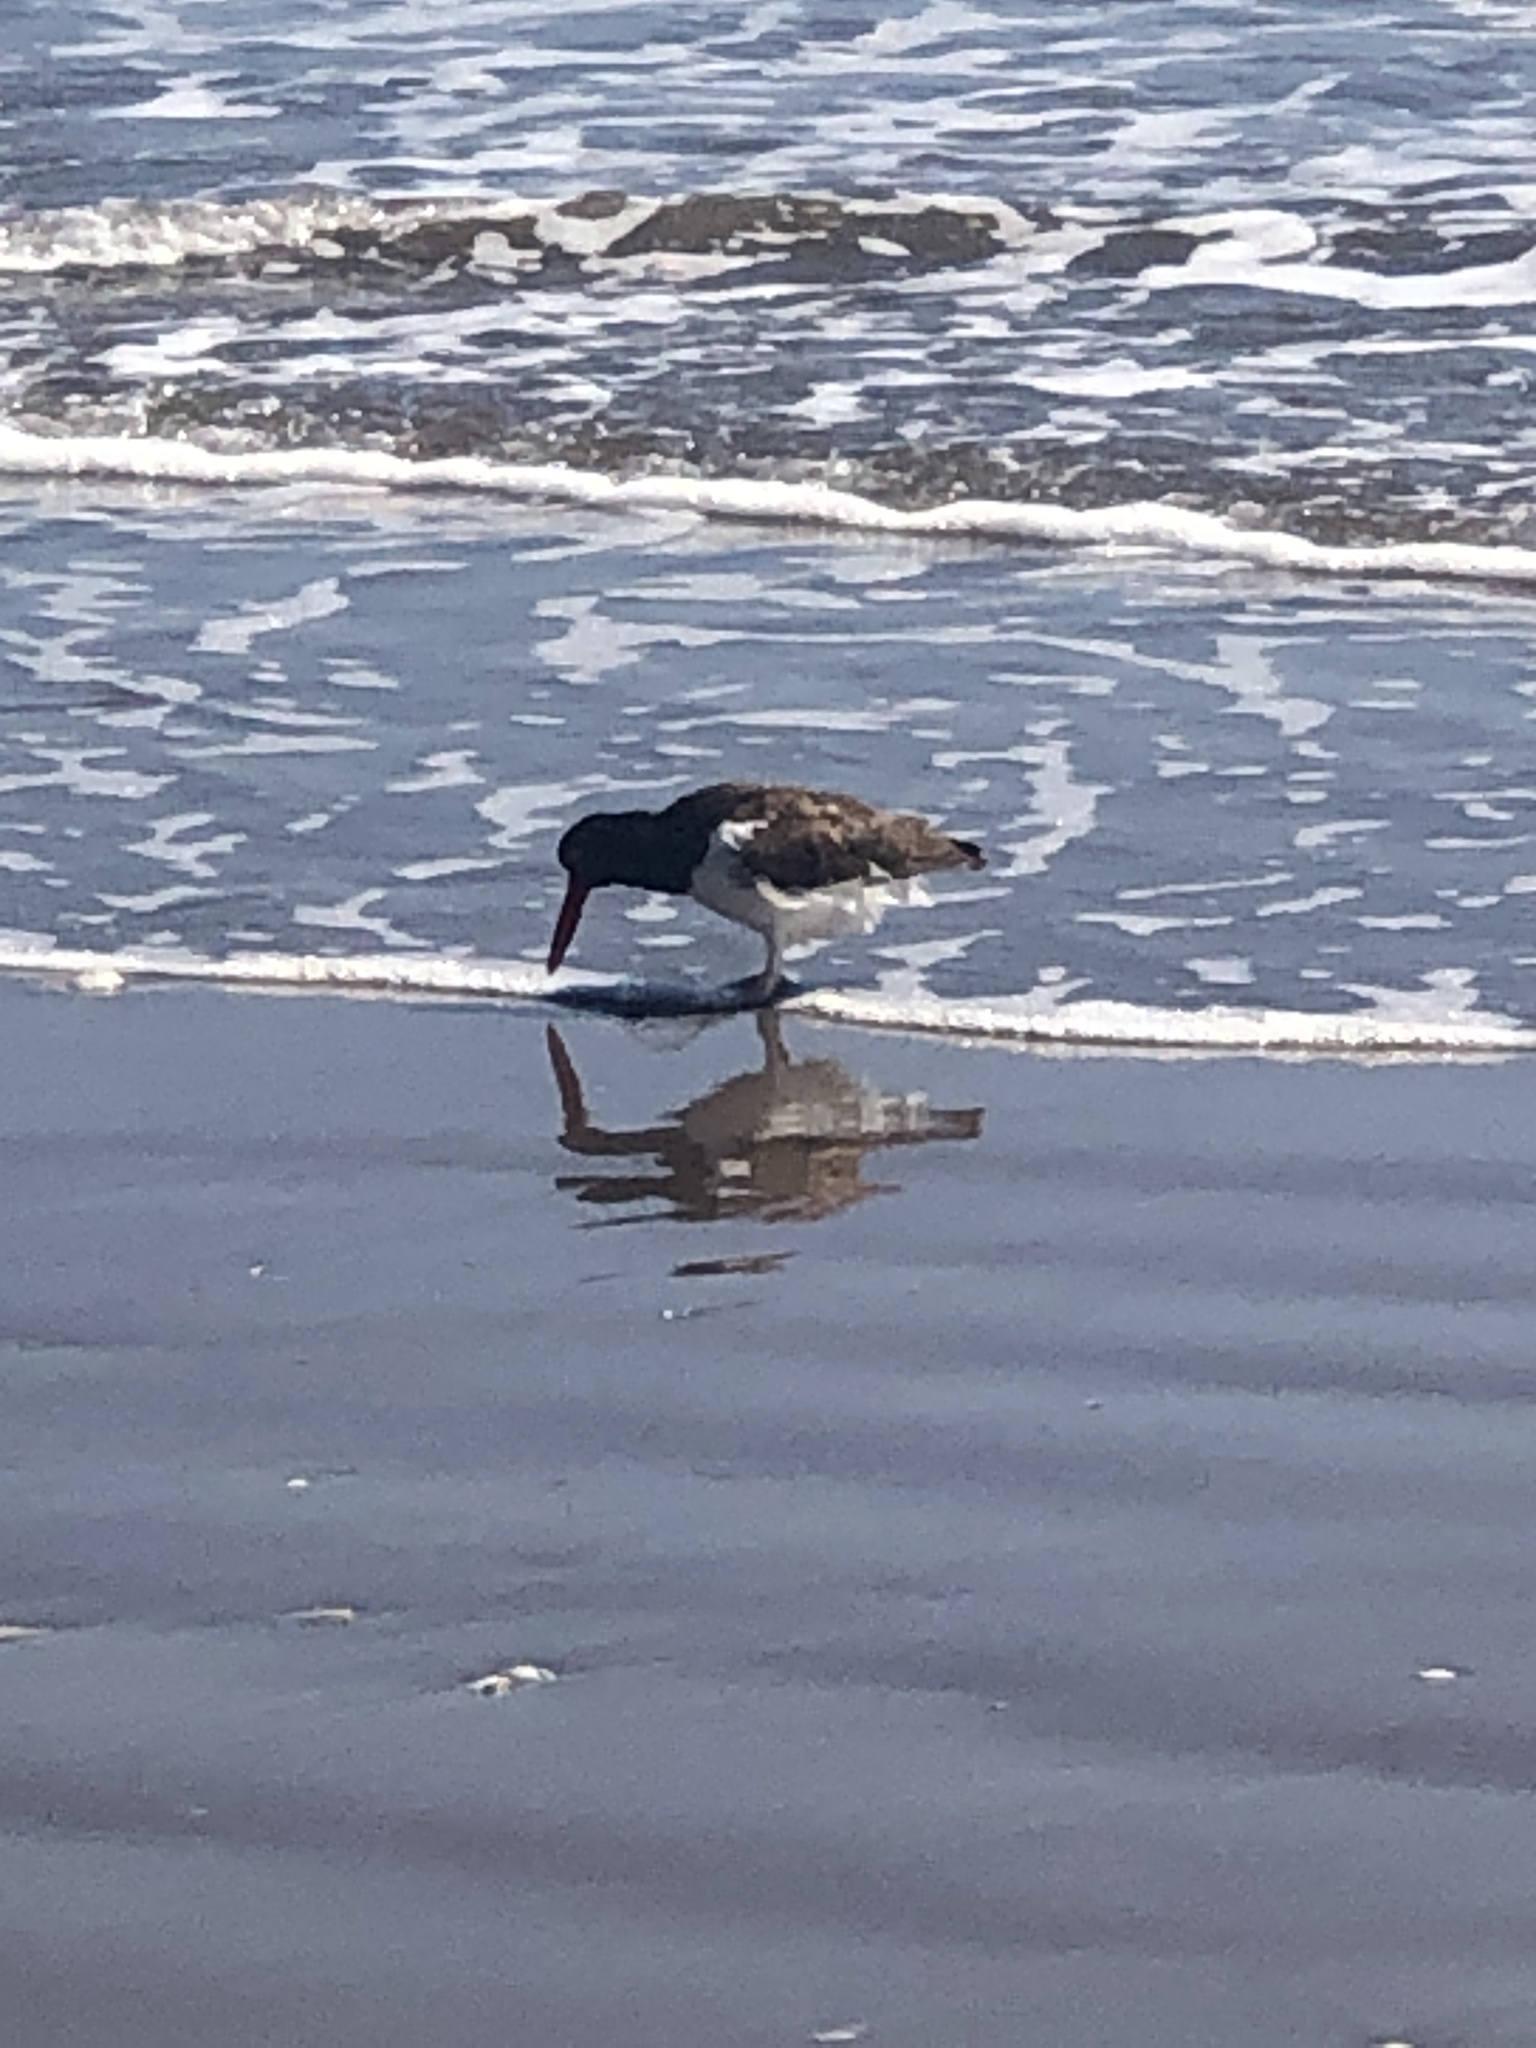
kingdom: Animalia
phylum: Chordata
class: Aves
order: Charadriiformes
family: Haematopodidae
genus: Haematopus
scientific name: Haematopus palliatus
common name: American oystercatcher
